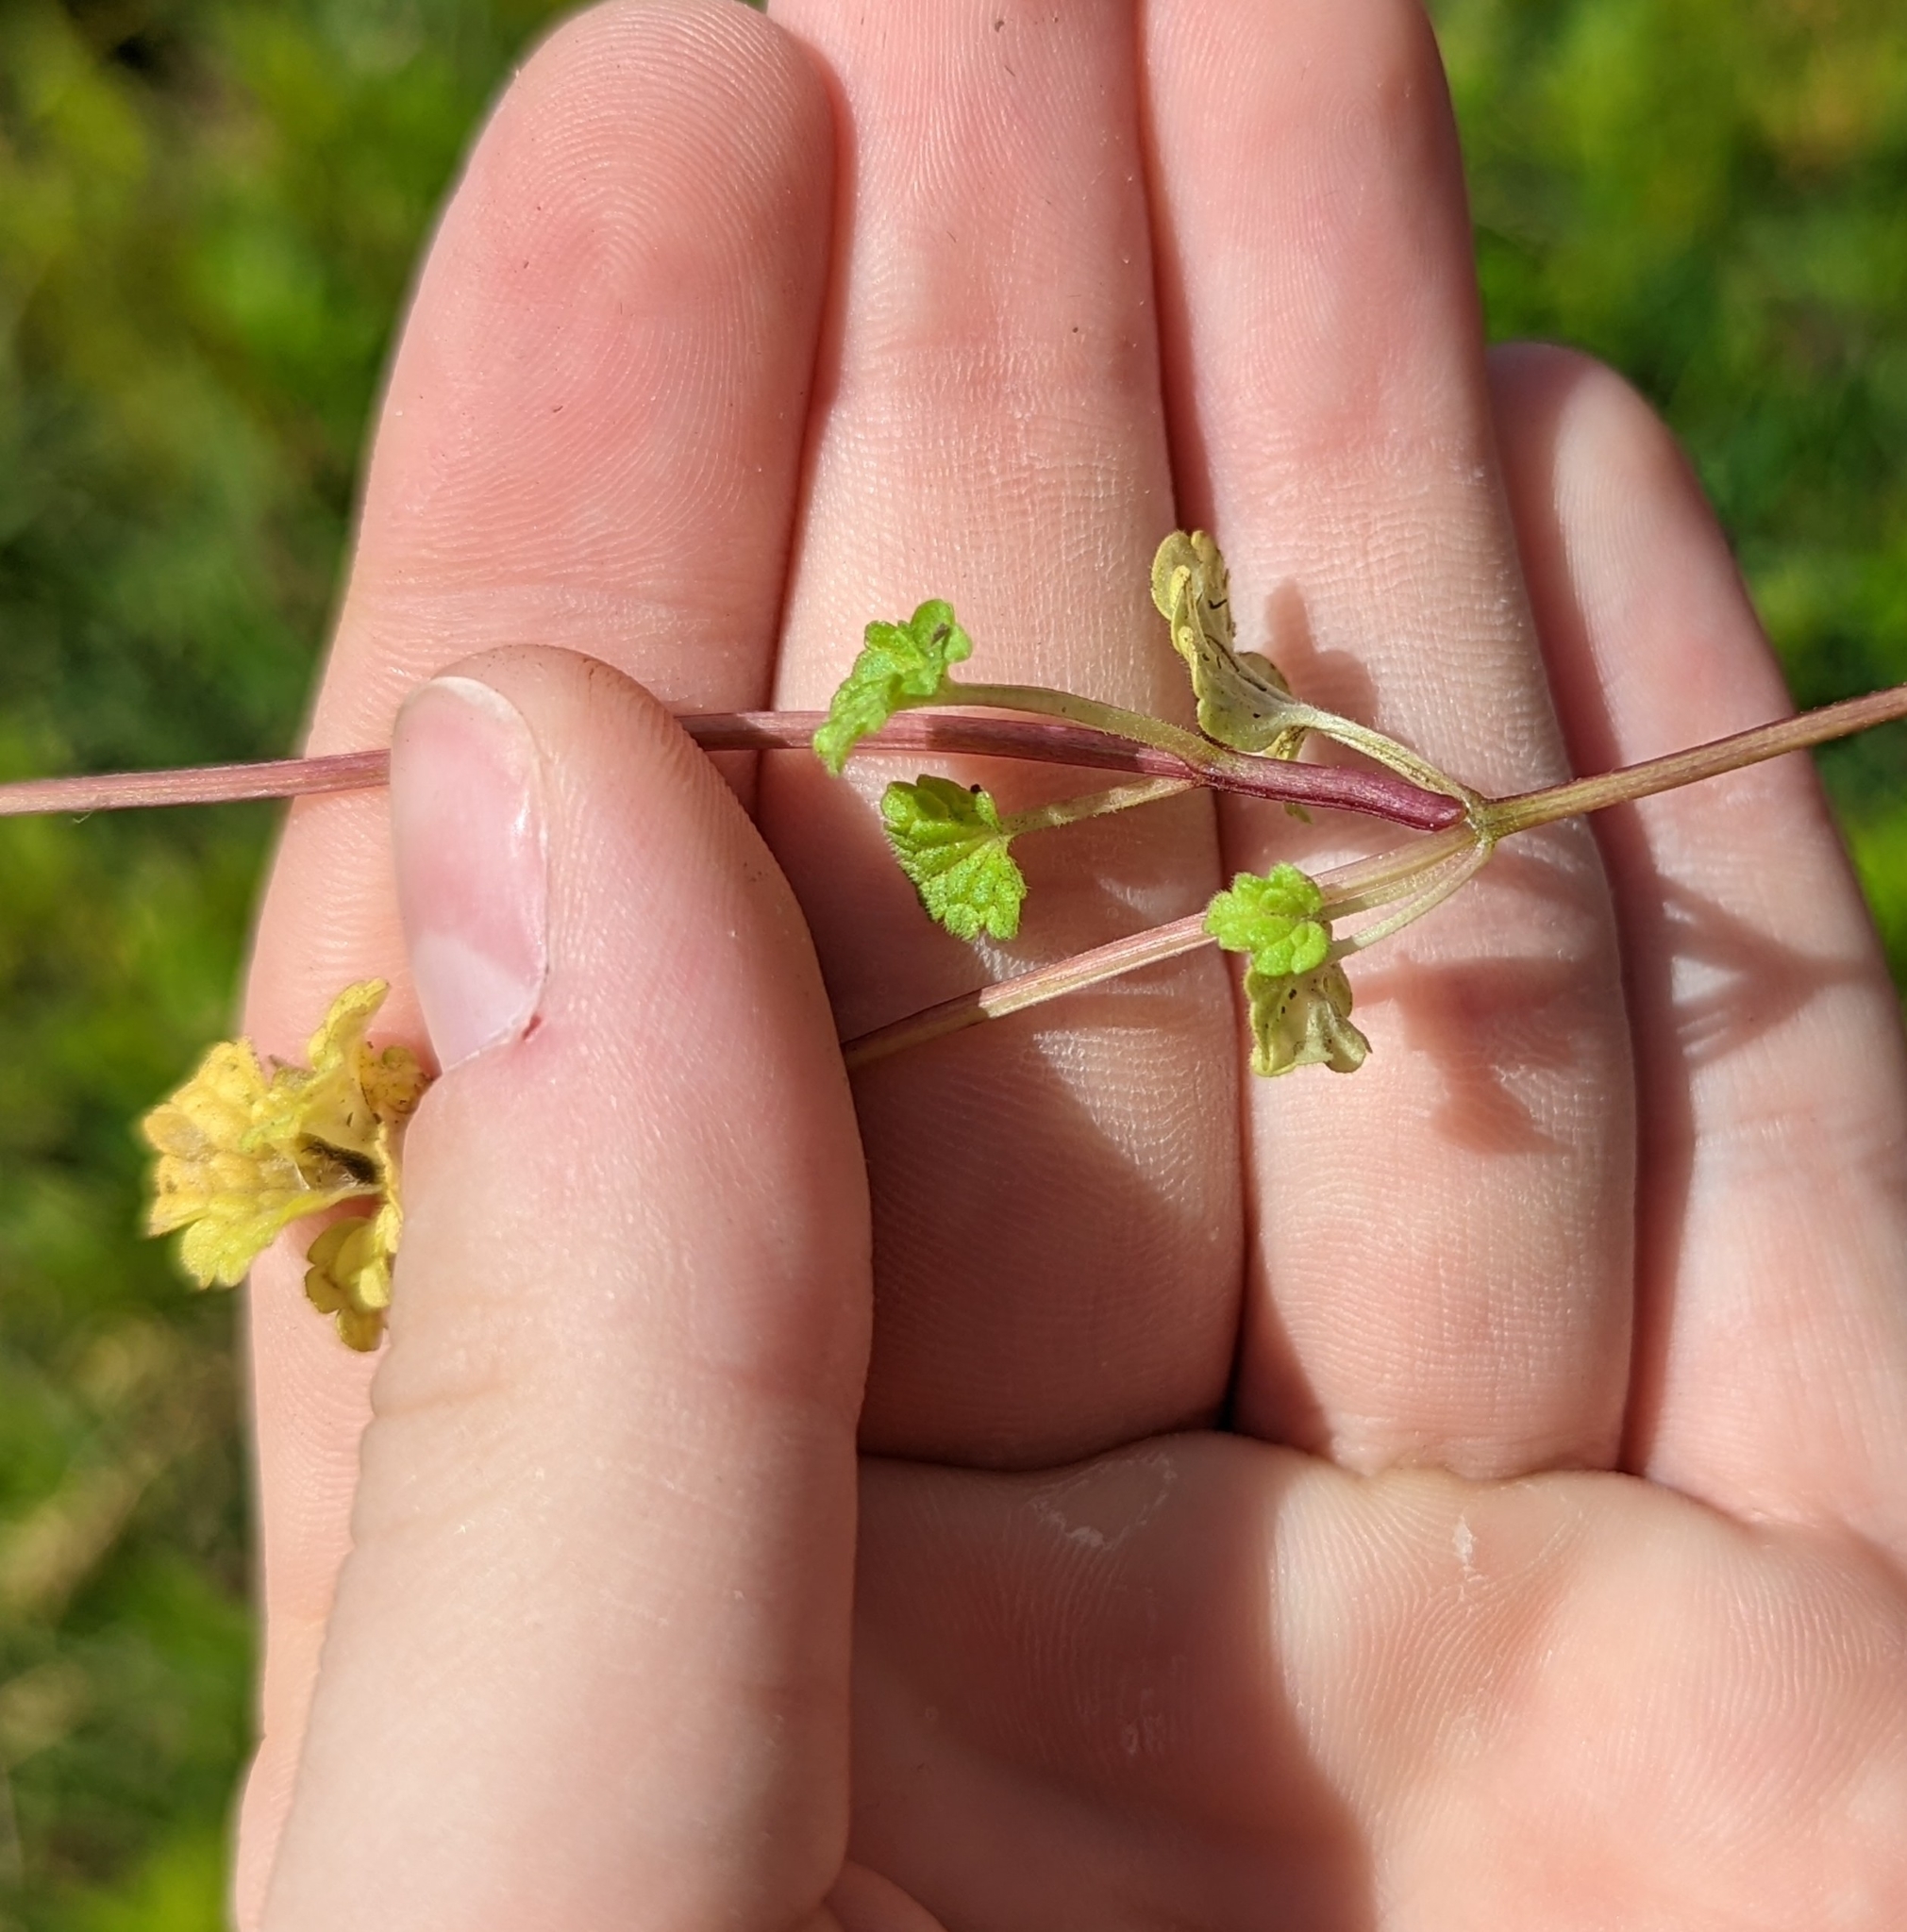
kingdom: Plantae
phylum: Tracheophyta
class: Magnoliopsida
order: Lamiales
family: Lamiaceae
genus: Lamium
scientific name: Lamium amplexicaule
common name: Henbit dead-nettle
